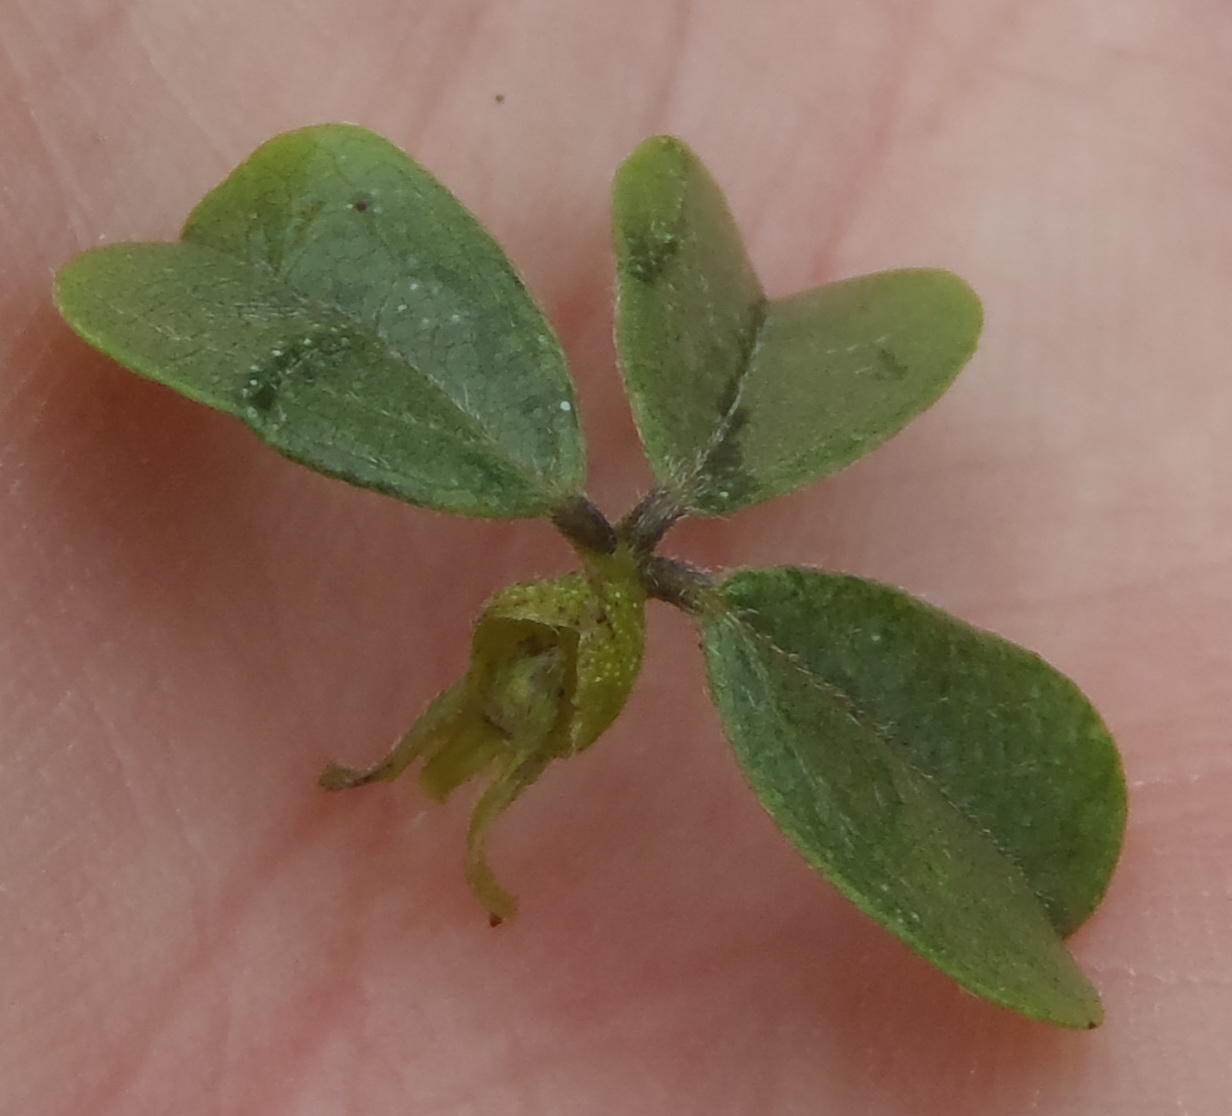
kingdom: Plantae
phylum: Tracheophyta
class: Magnoliopsida
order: Fabales
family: Fabaceae
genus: Psoralea
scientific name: Psoralea stachyera
